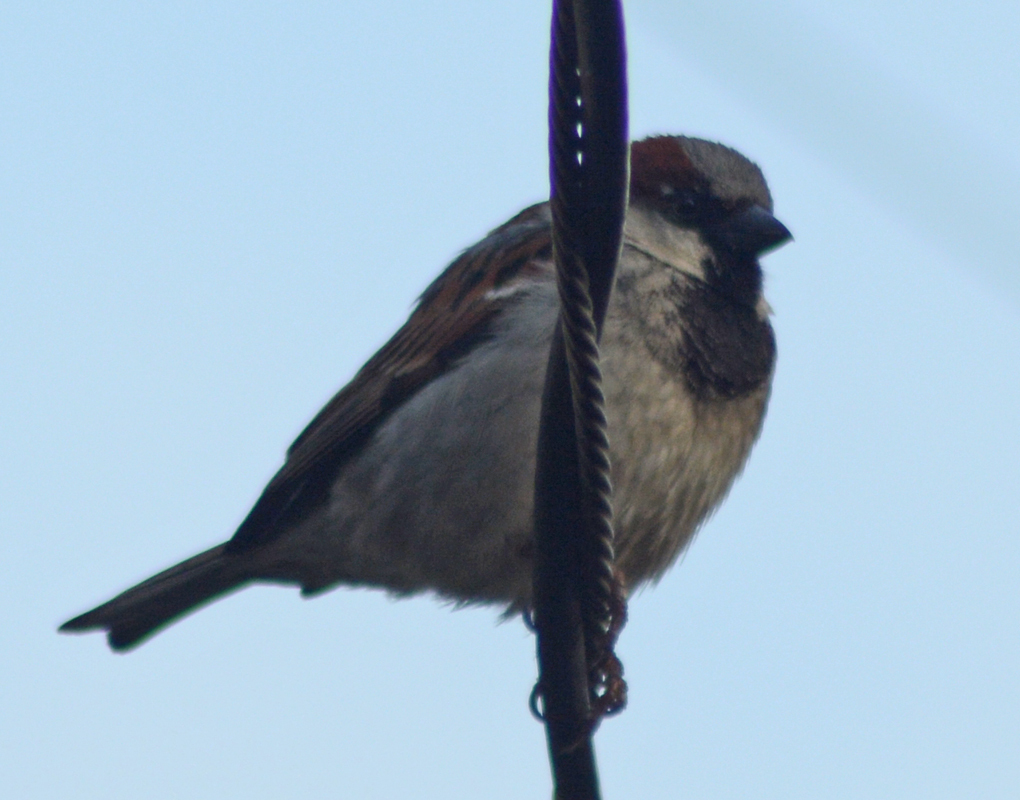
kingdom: Animalia
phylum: Chordata
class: Aves
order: Passeriformes
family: Passeridae
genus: Passer
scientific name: Passer domesticus
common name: House sparrow
